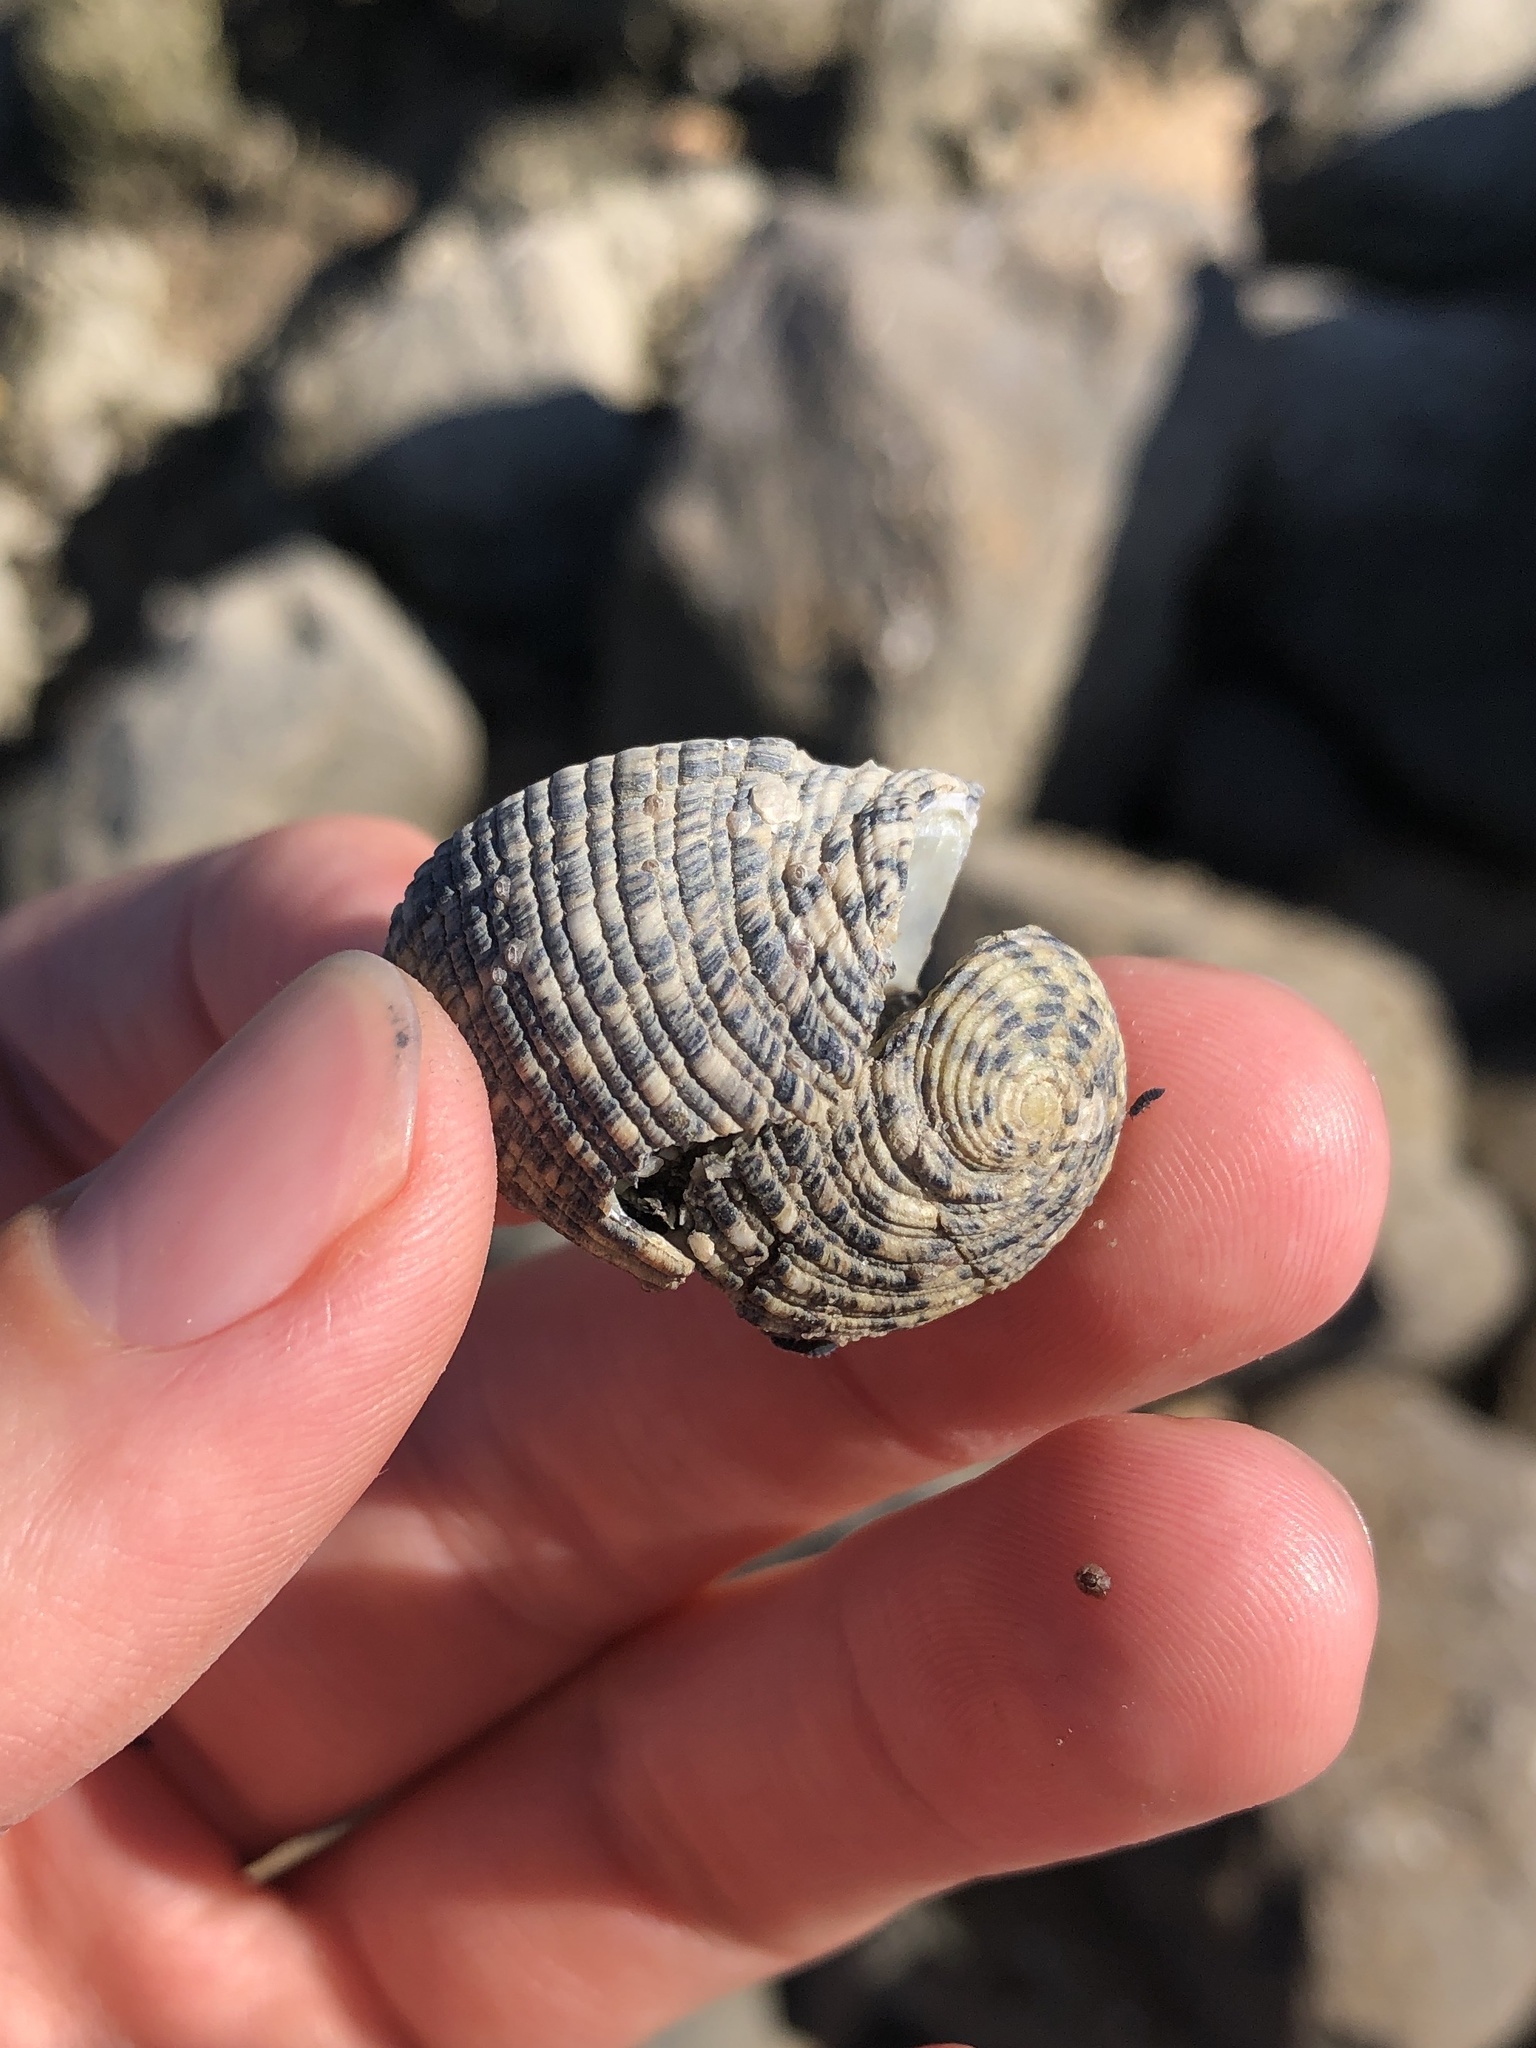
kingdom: Animalia
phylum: Mollusca
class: Gastropoda
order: Cycloneritida
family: Neritidae
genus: Nerita
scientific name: Nerita fulgurans
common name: Antillean nerite
